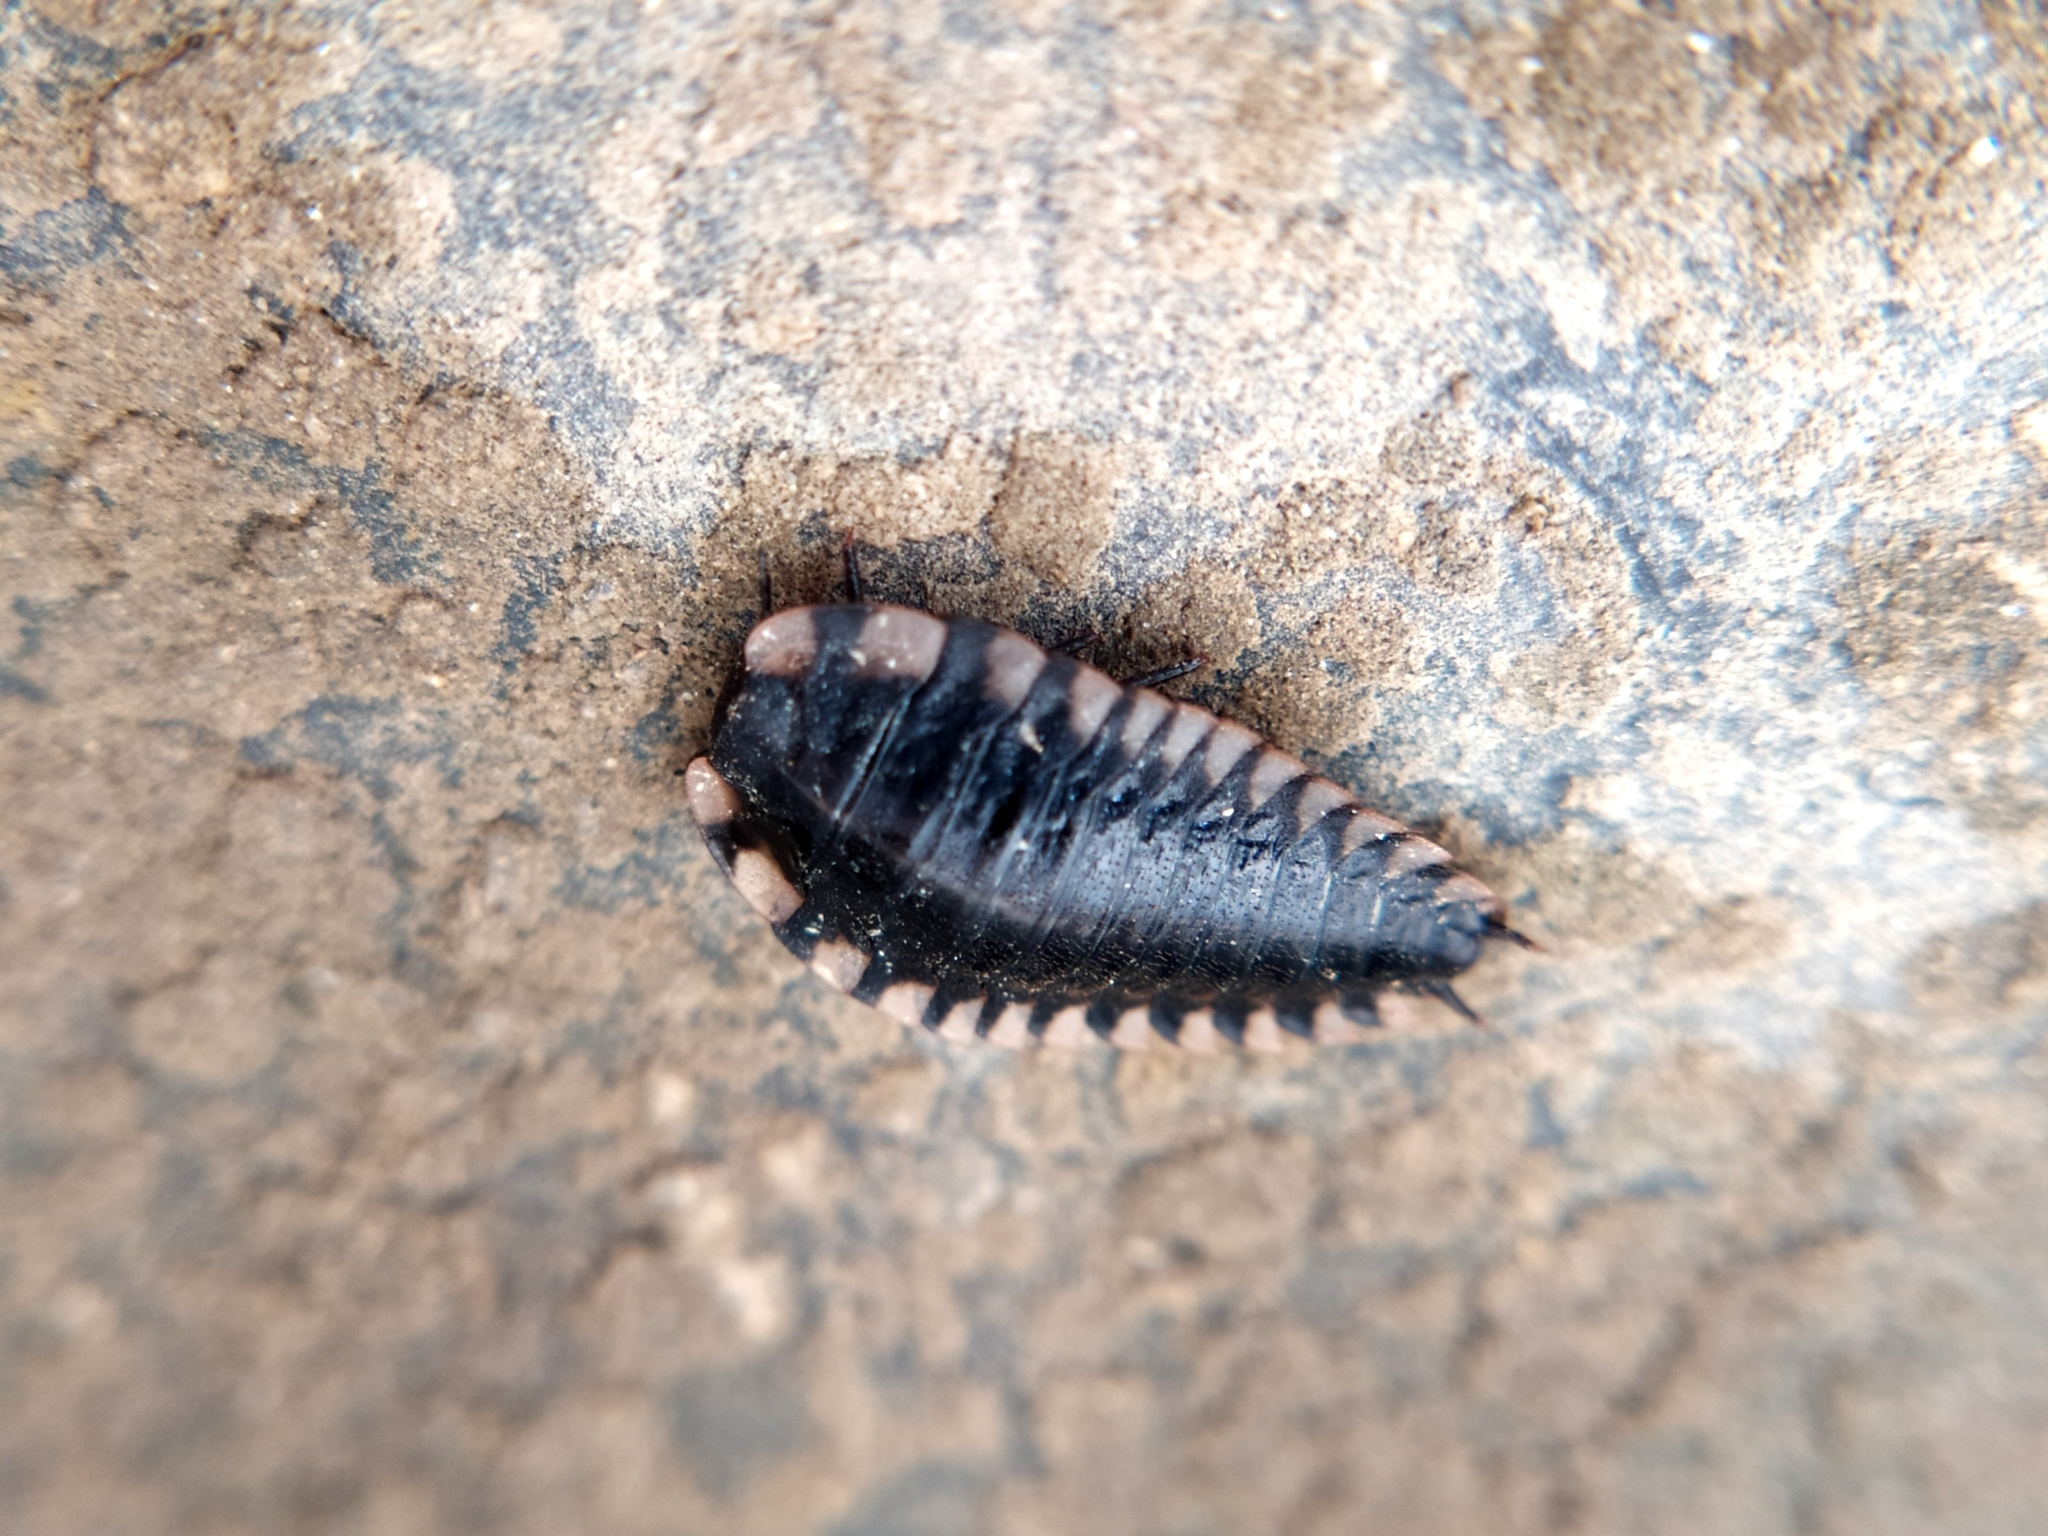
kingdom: Animalia
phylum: Arthropoda
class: Insecta
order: Coleoptera
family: Staphylinidae
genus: Oiceoptoma
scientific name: Oiceoptoma thoracicum
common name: Red-breasted carrion beetle
